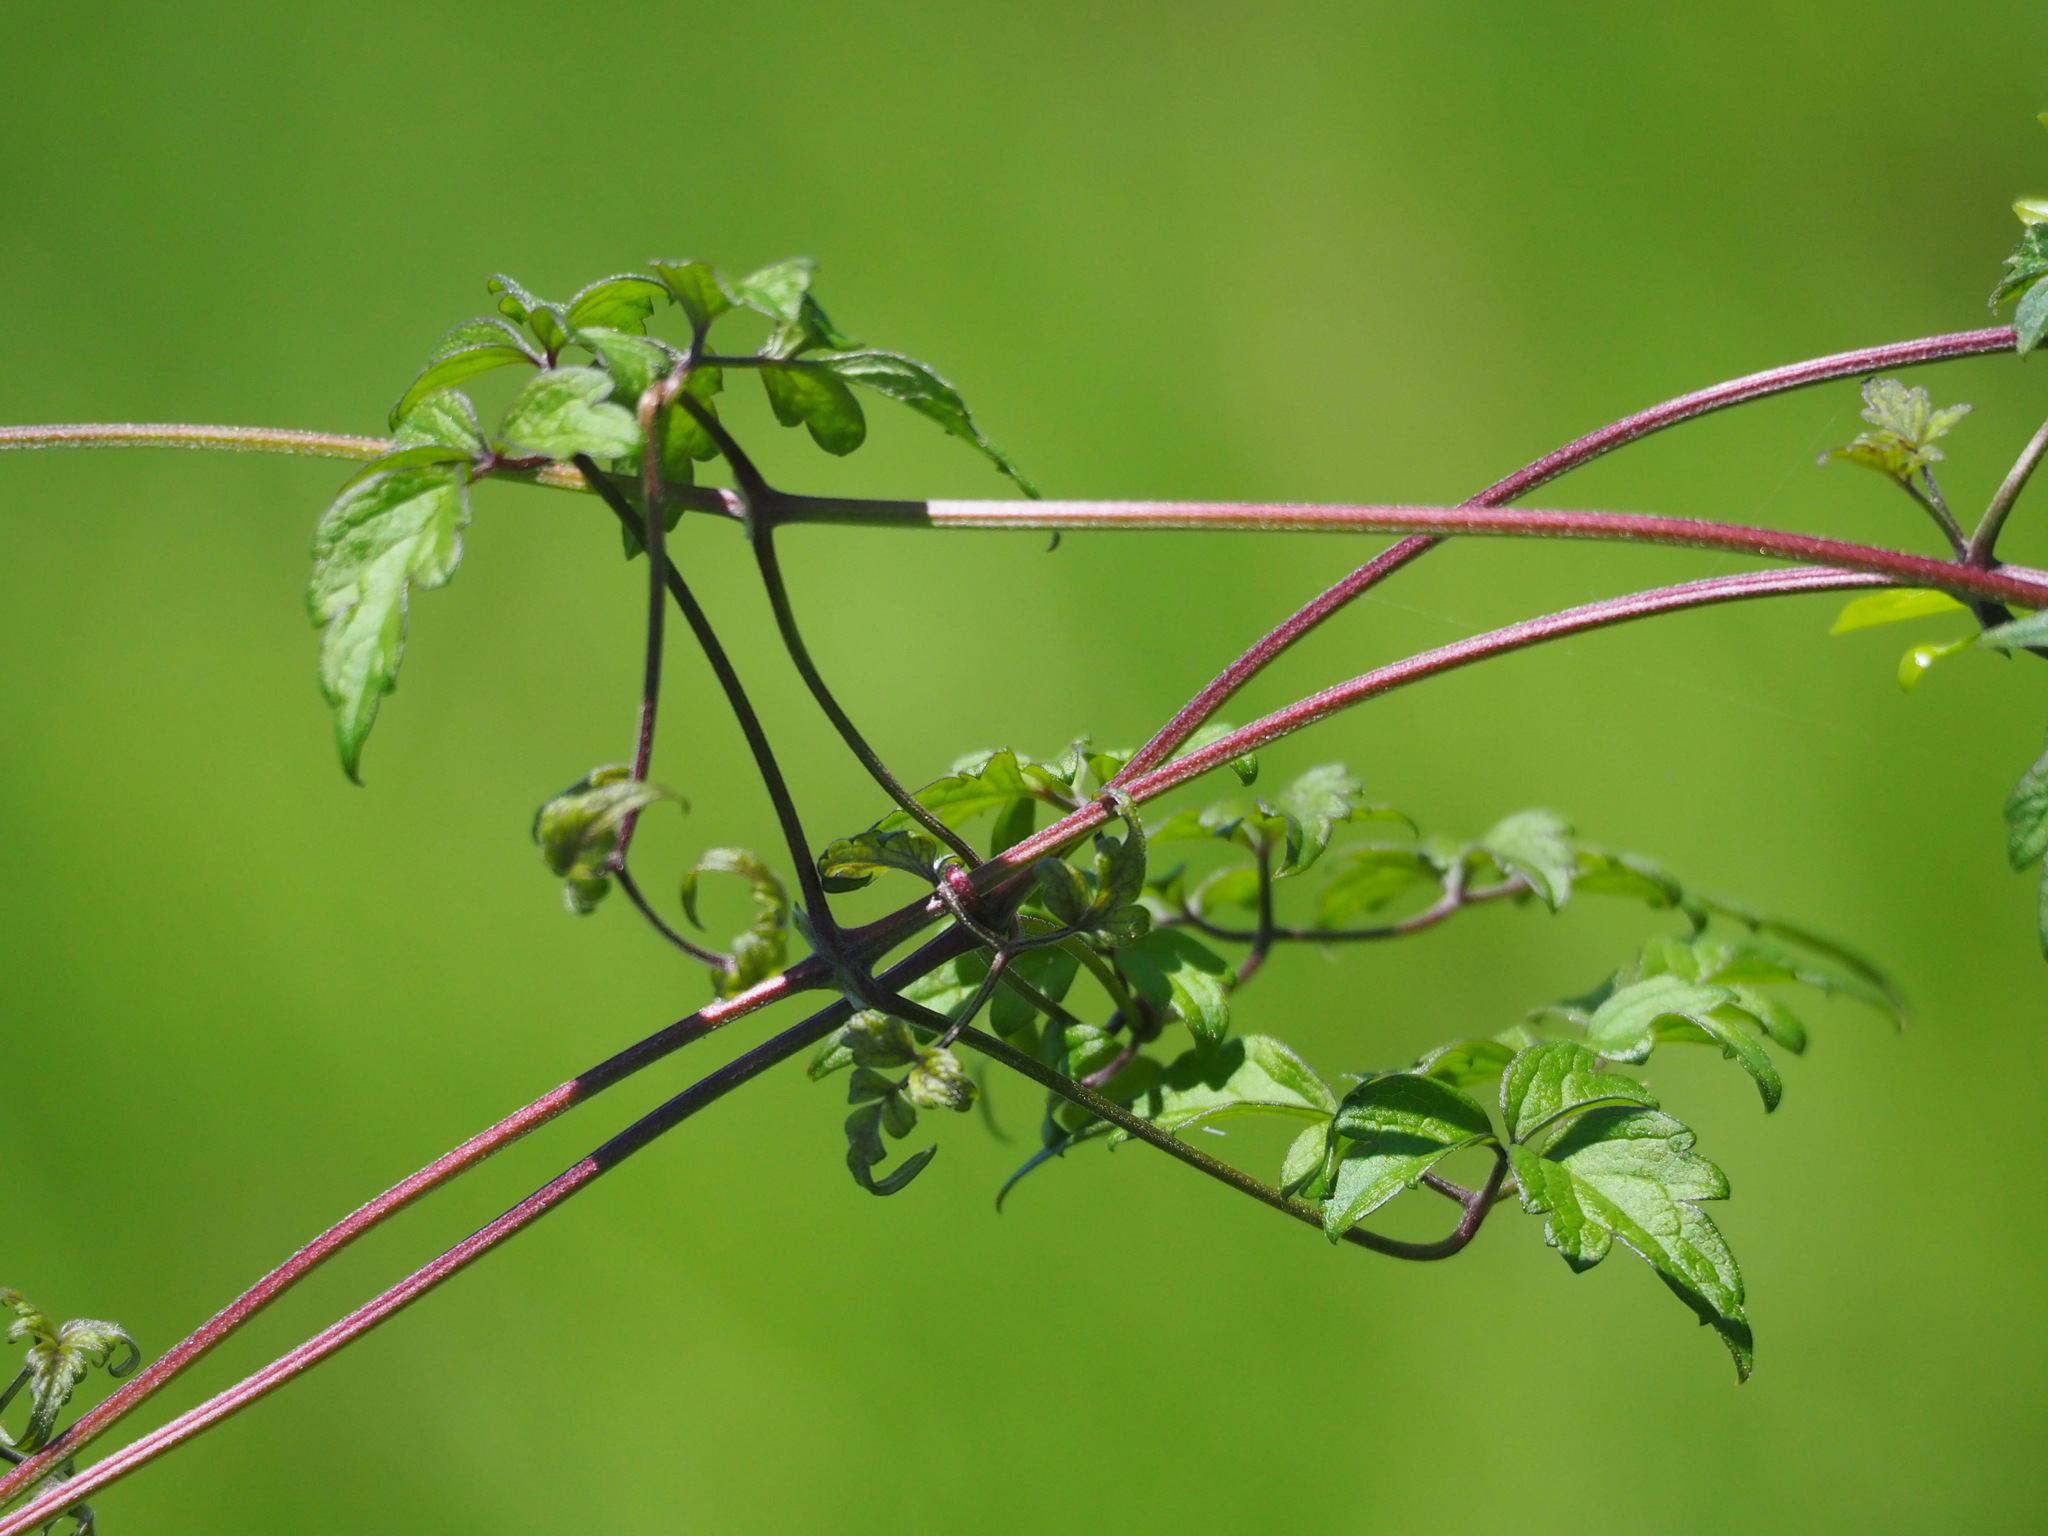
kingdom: Plantae
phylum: Tracheophyta
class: Magnoliopsida
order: Ranunculales
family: Ranunculaceae
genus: Clematis
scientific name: Clematis grata
